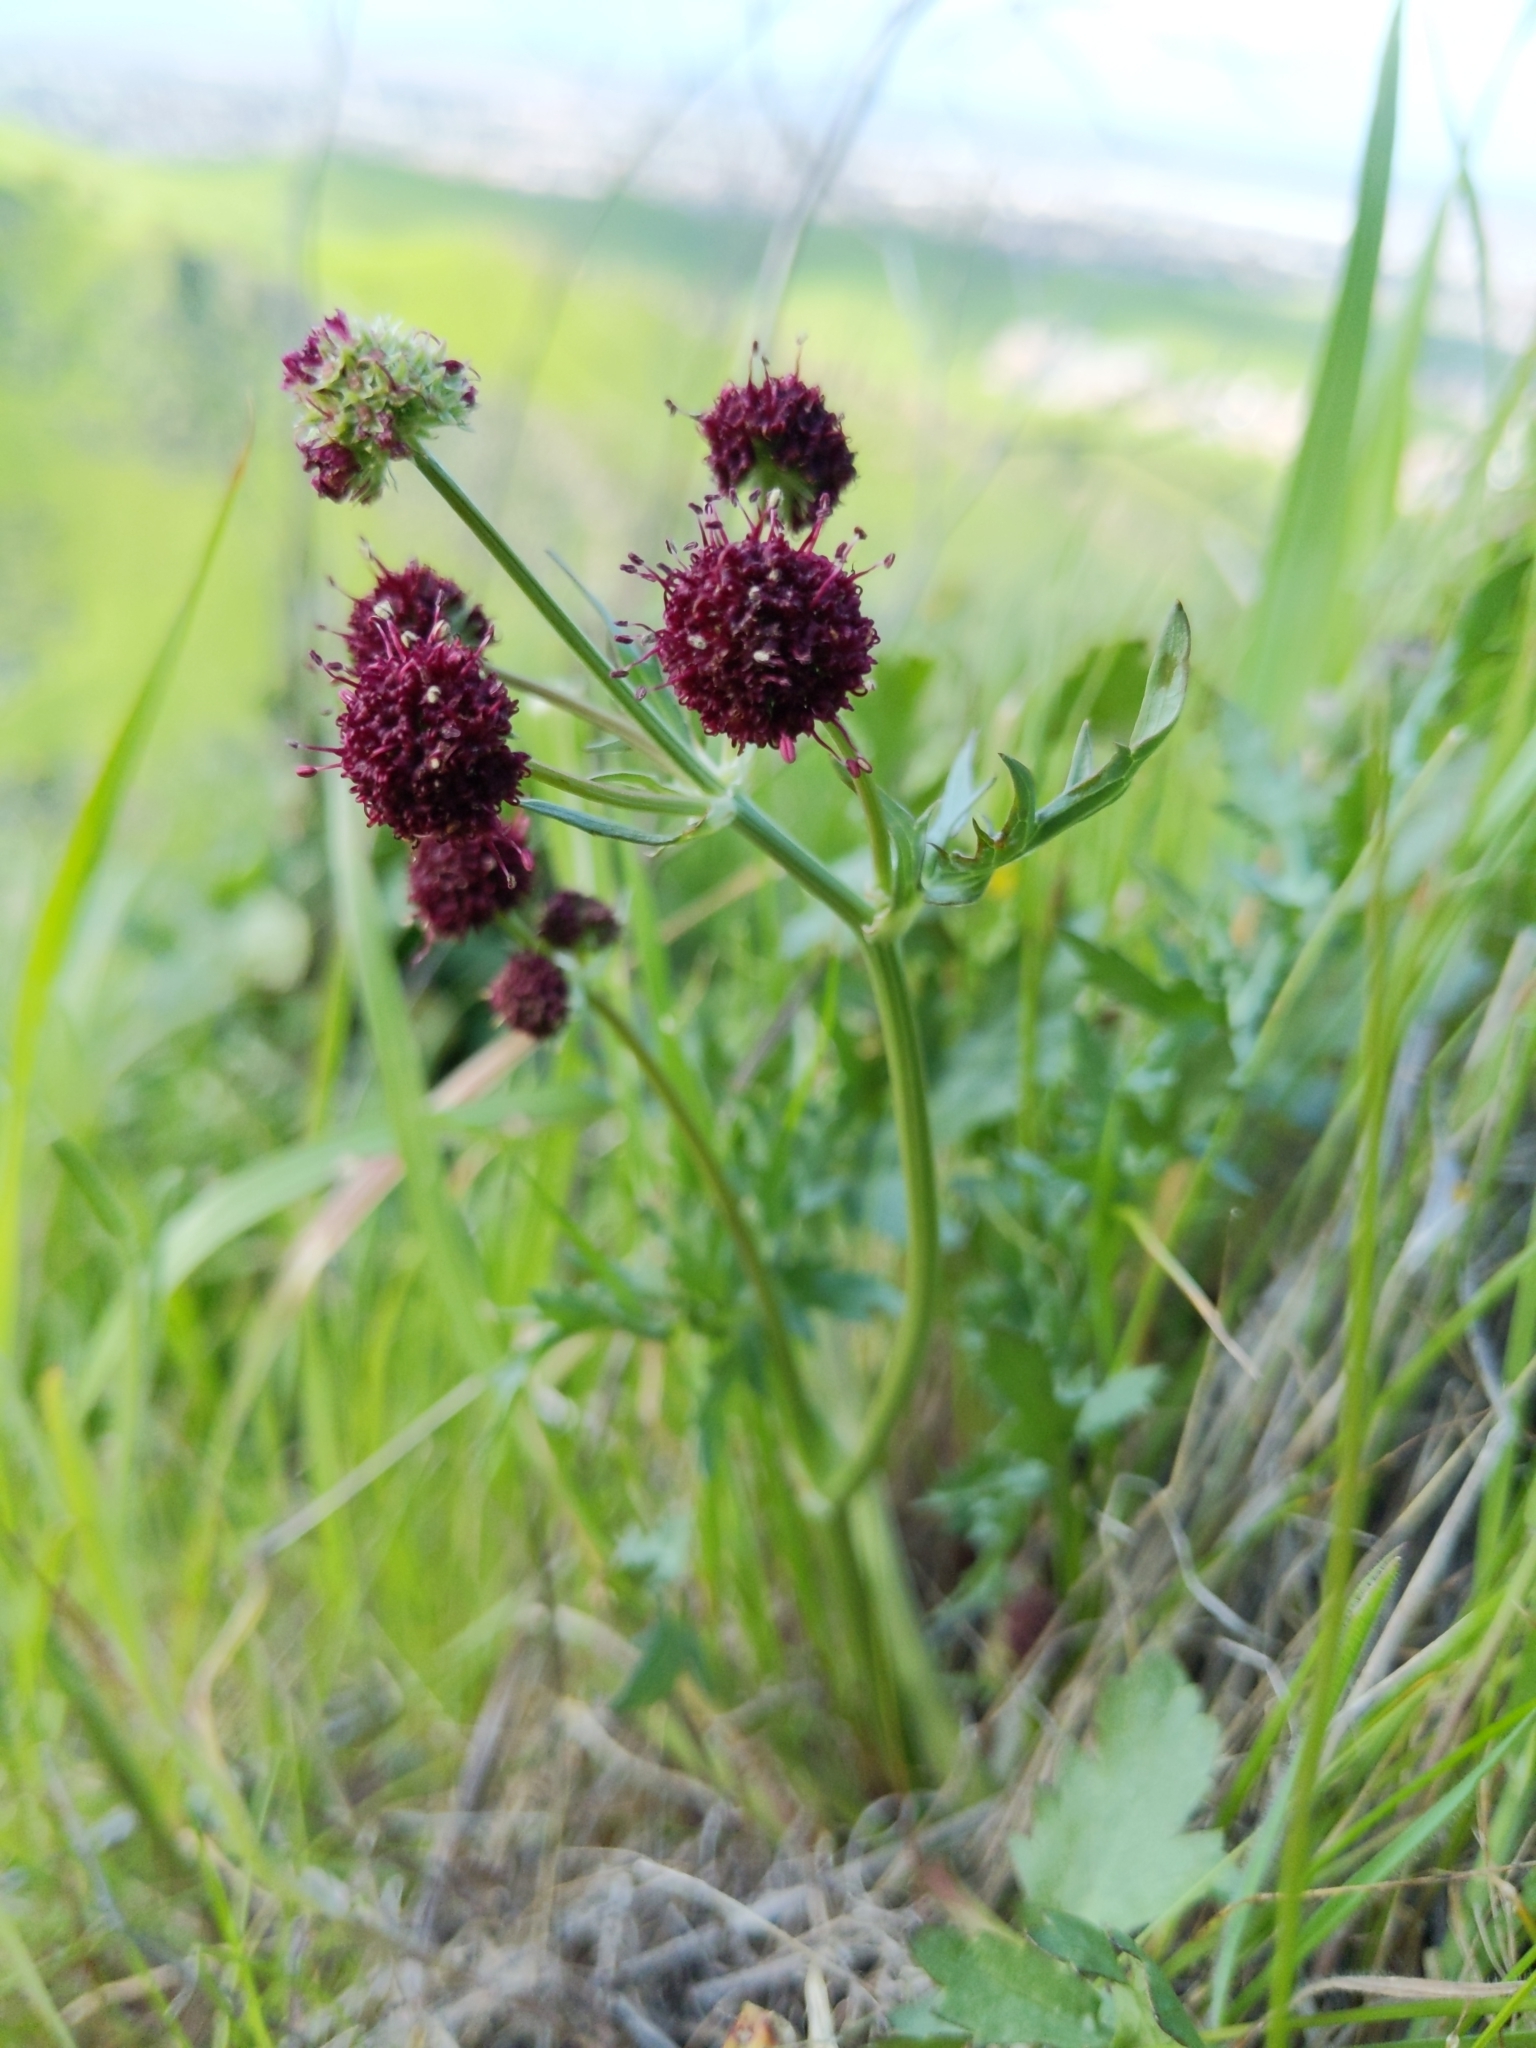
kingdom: Plantae
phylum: Tracheophyta
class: Magnoliopsida
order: Apiales
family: Apiaceae
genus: Sanicula
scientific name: Sanicula bipinnatifida
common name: Shoe-buttons
